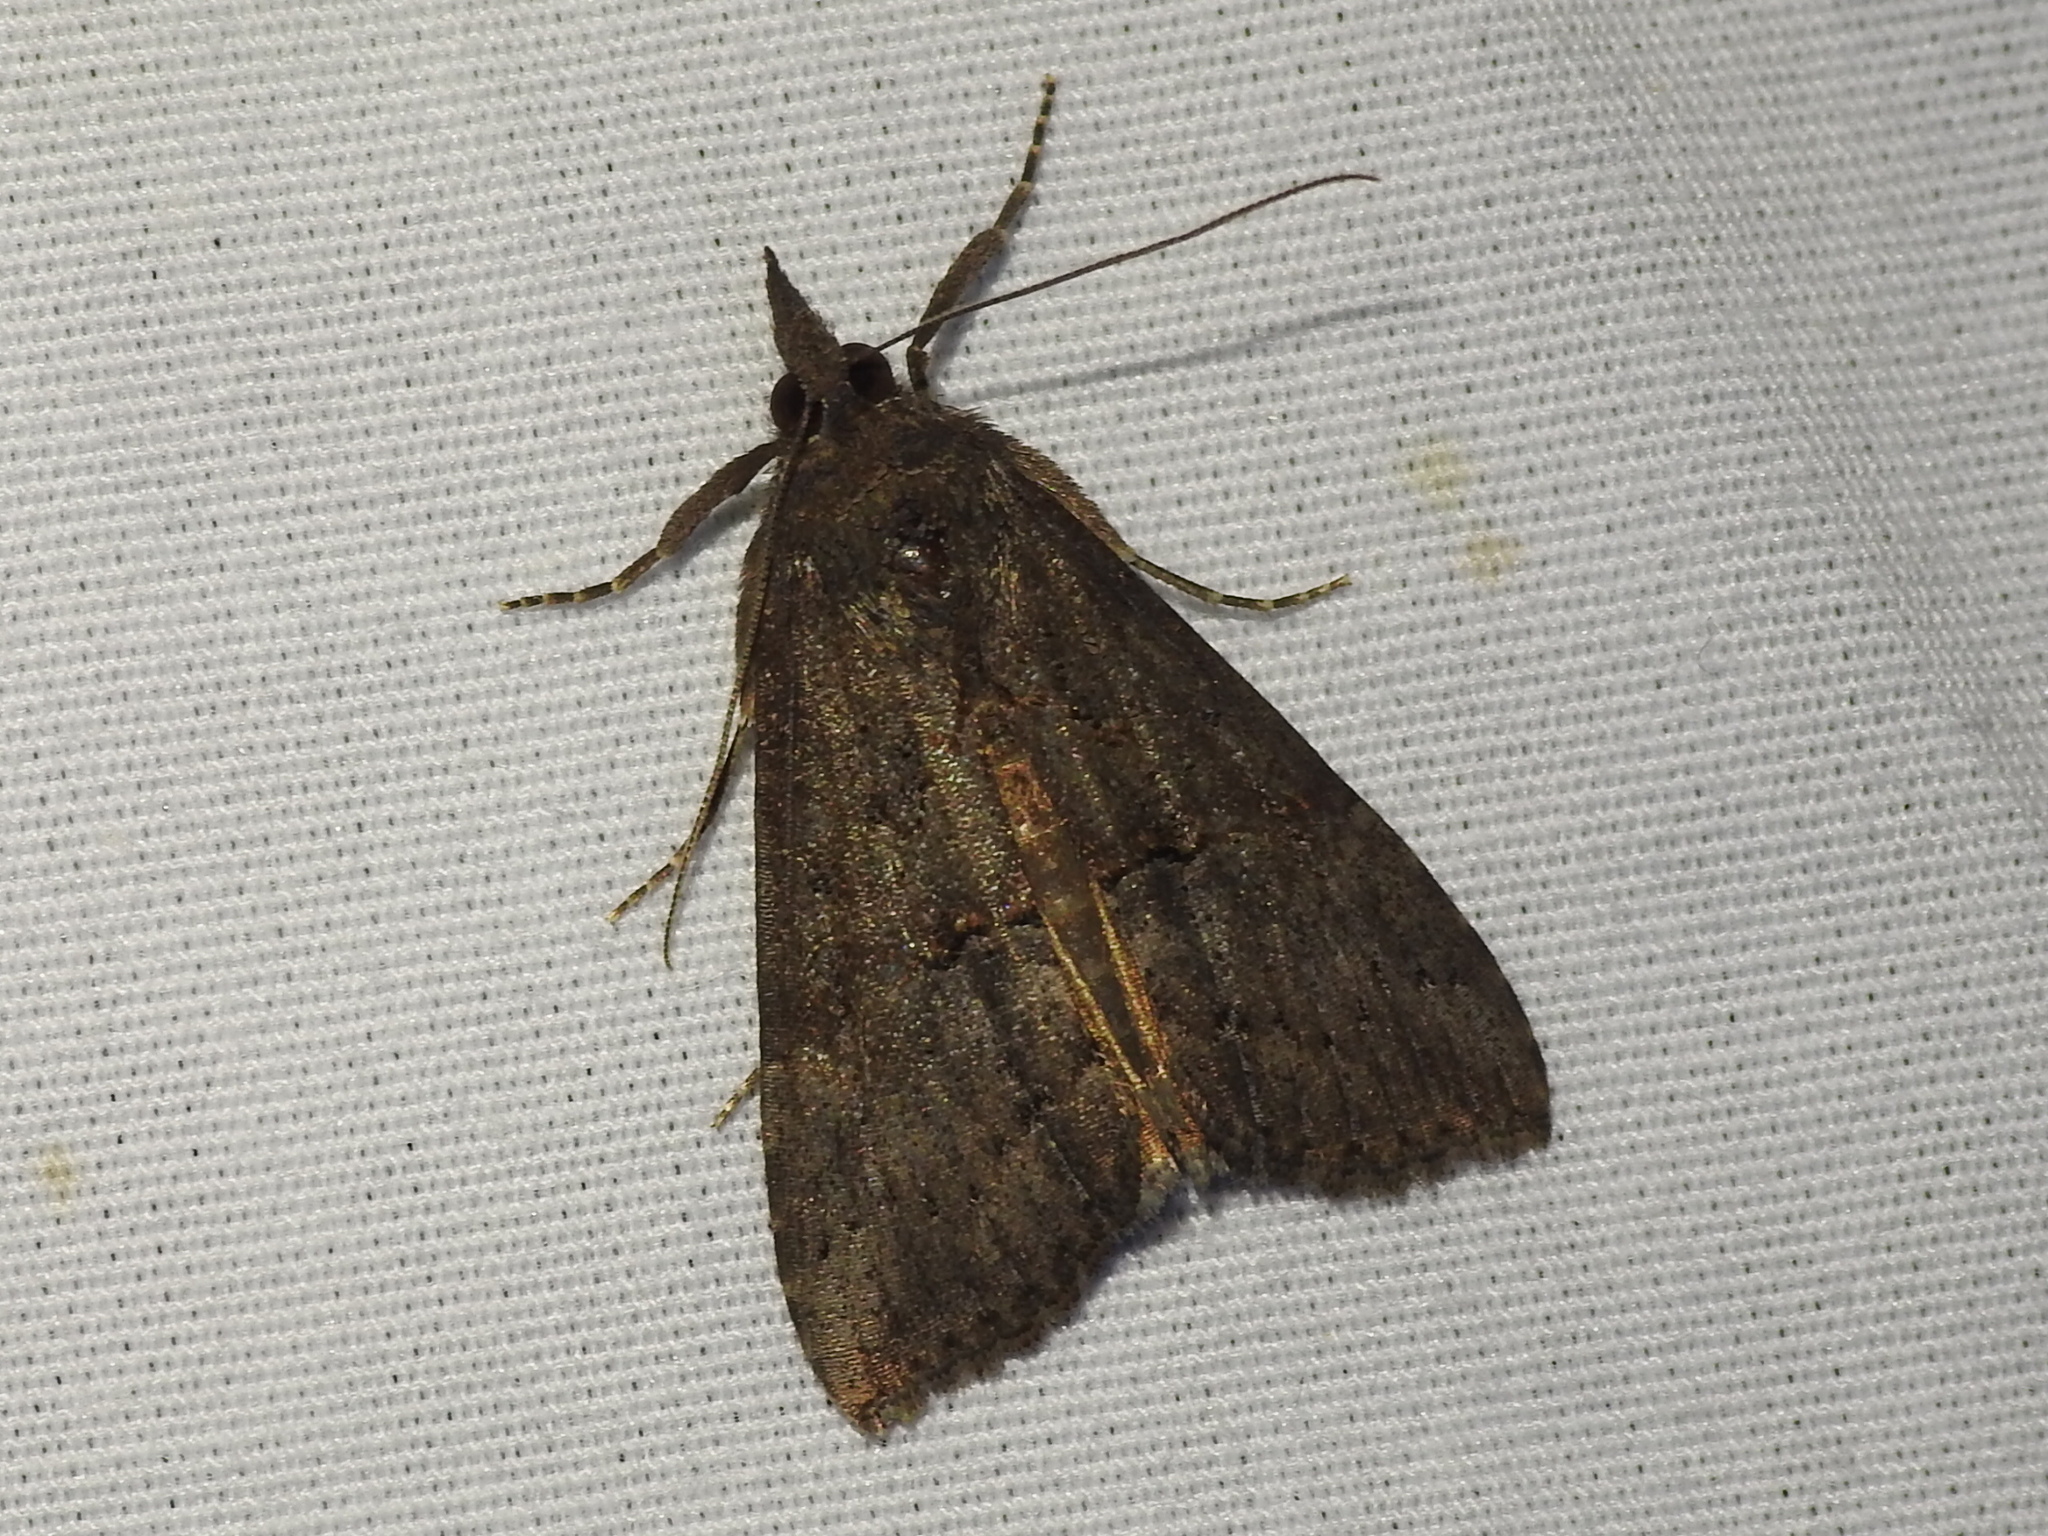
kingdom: Animalia
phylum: Arthropoda
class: Insecta
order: Lepidoptera
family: Erebidae
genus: Hypena
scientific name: Hypena scabra
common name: Green cloverworm
